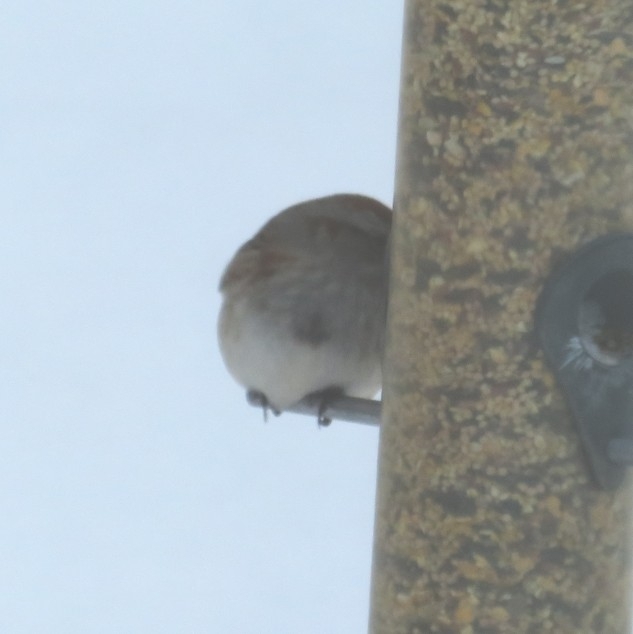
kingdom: Animalia
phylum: Chordata
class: Aves
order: Passeriformes
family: Passerellidae
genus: Spizelloides
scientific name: Spizelloides arborea
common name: American tree sparrow
